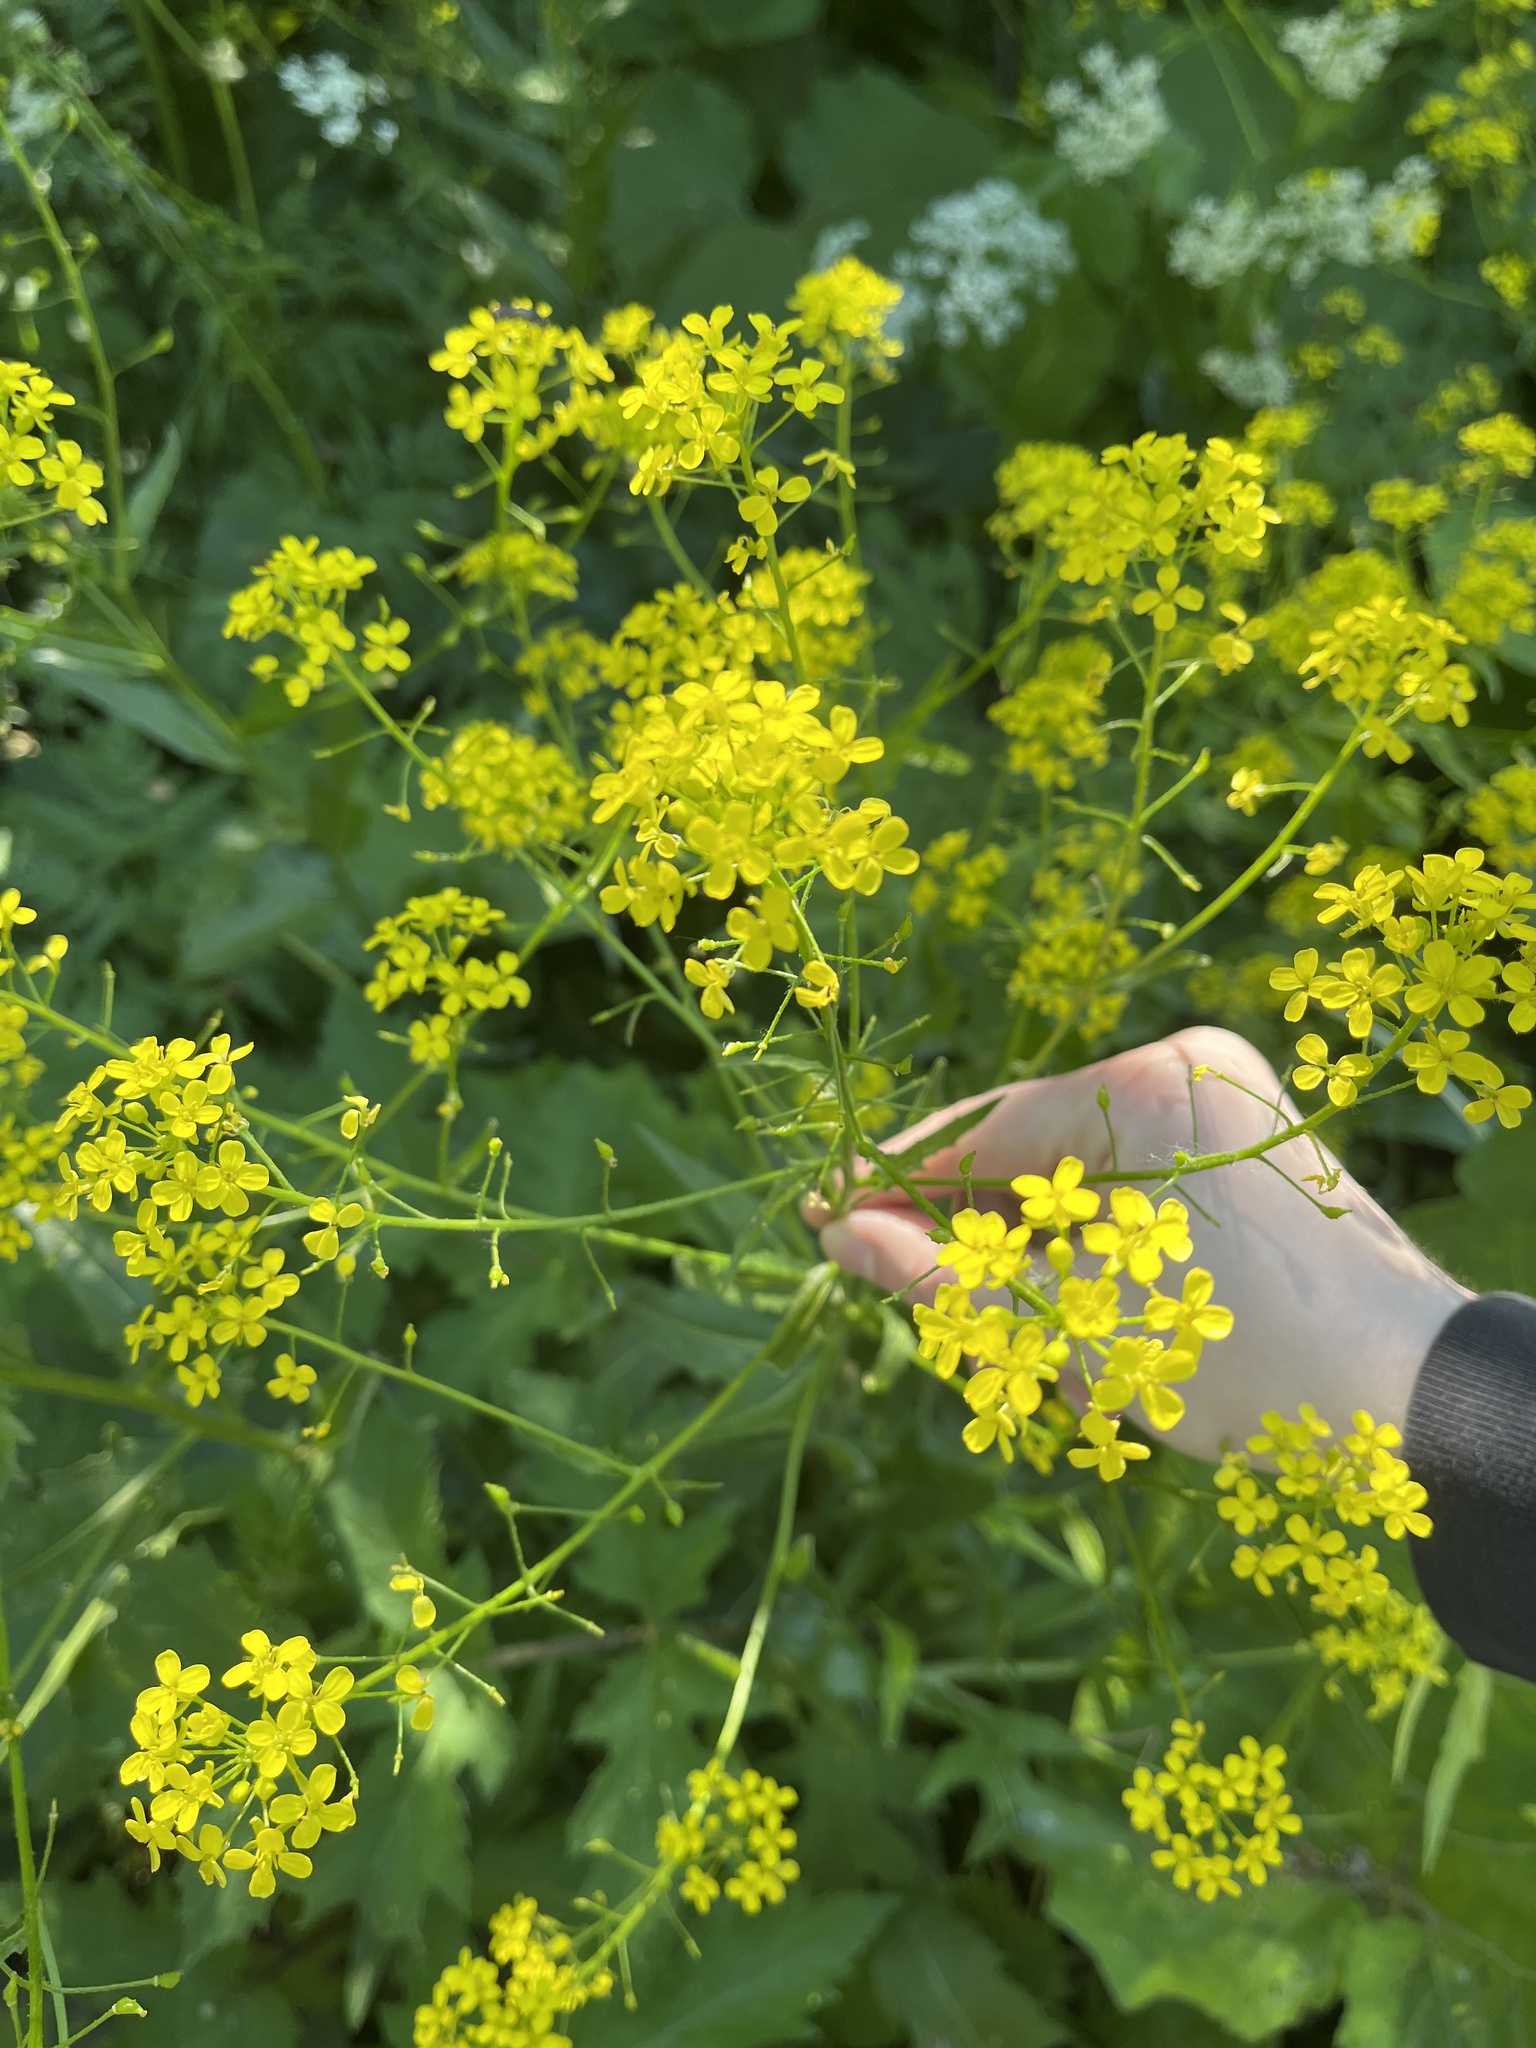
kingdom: Plantae
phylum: Tracheophyta
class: Magnoliopsida
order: Brassicales
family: Brassicaceae
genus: Bunias
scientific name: Bunias orientalis
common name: Warty-cabbage
